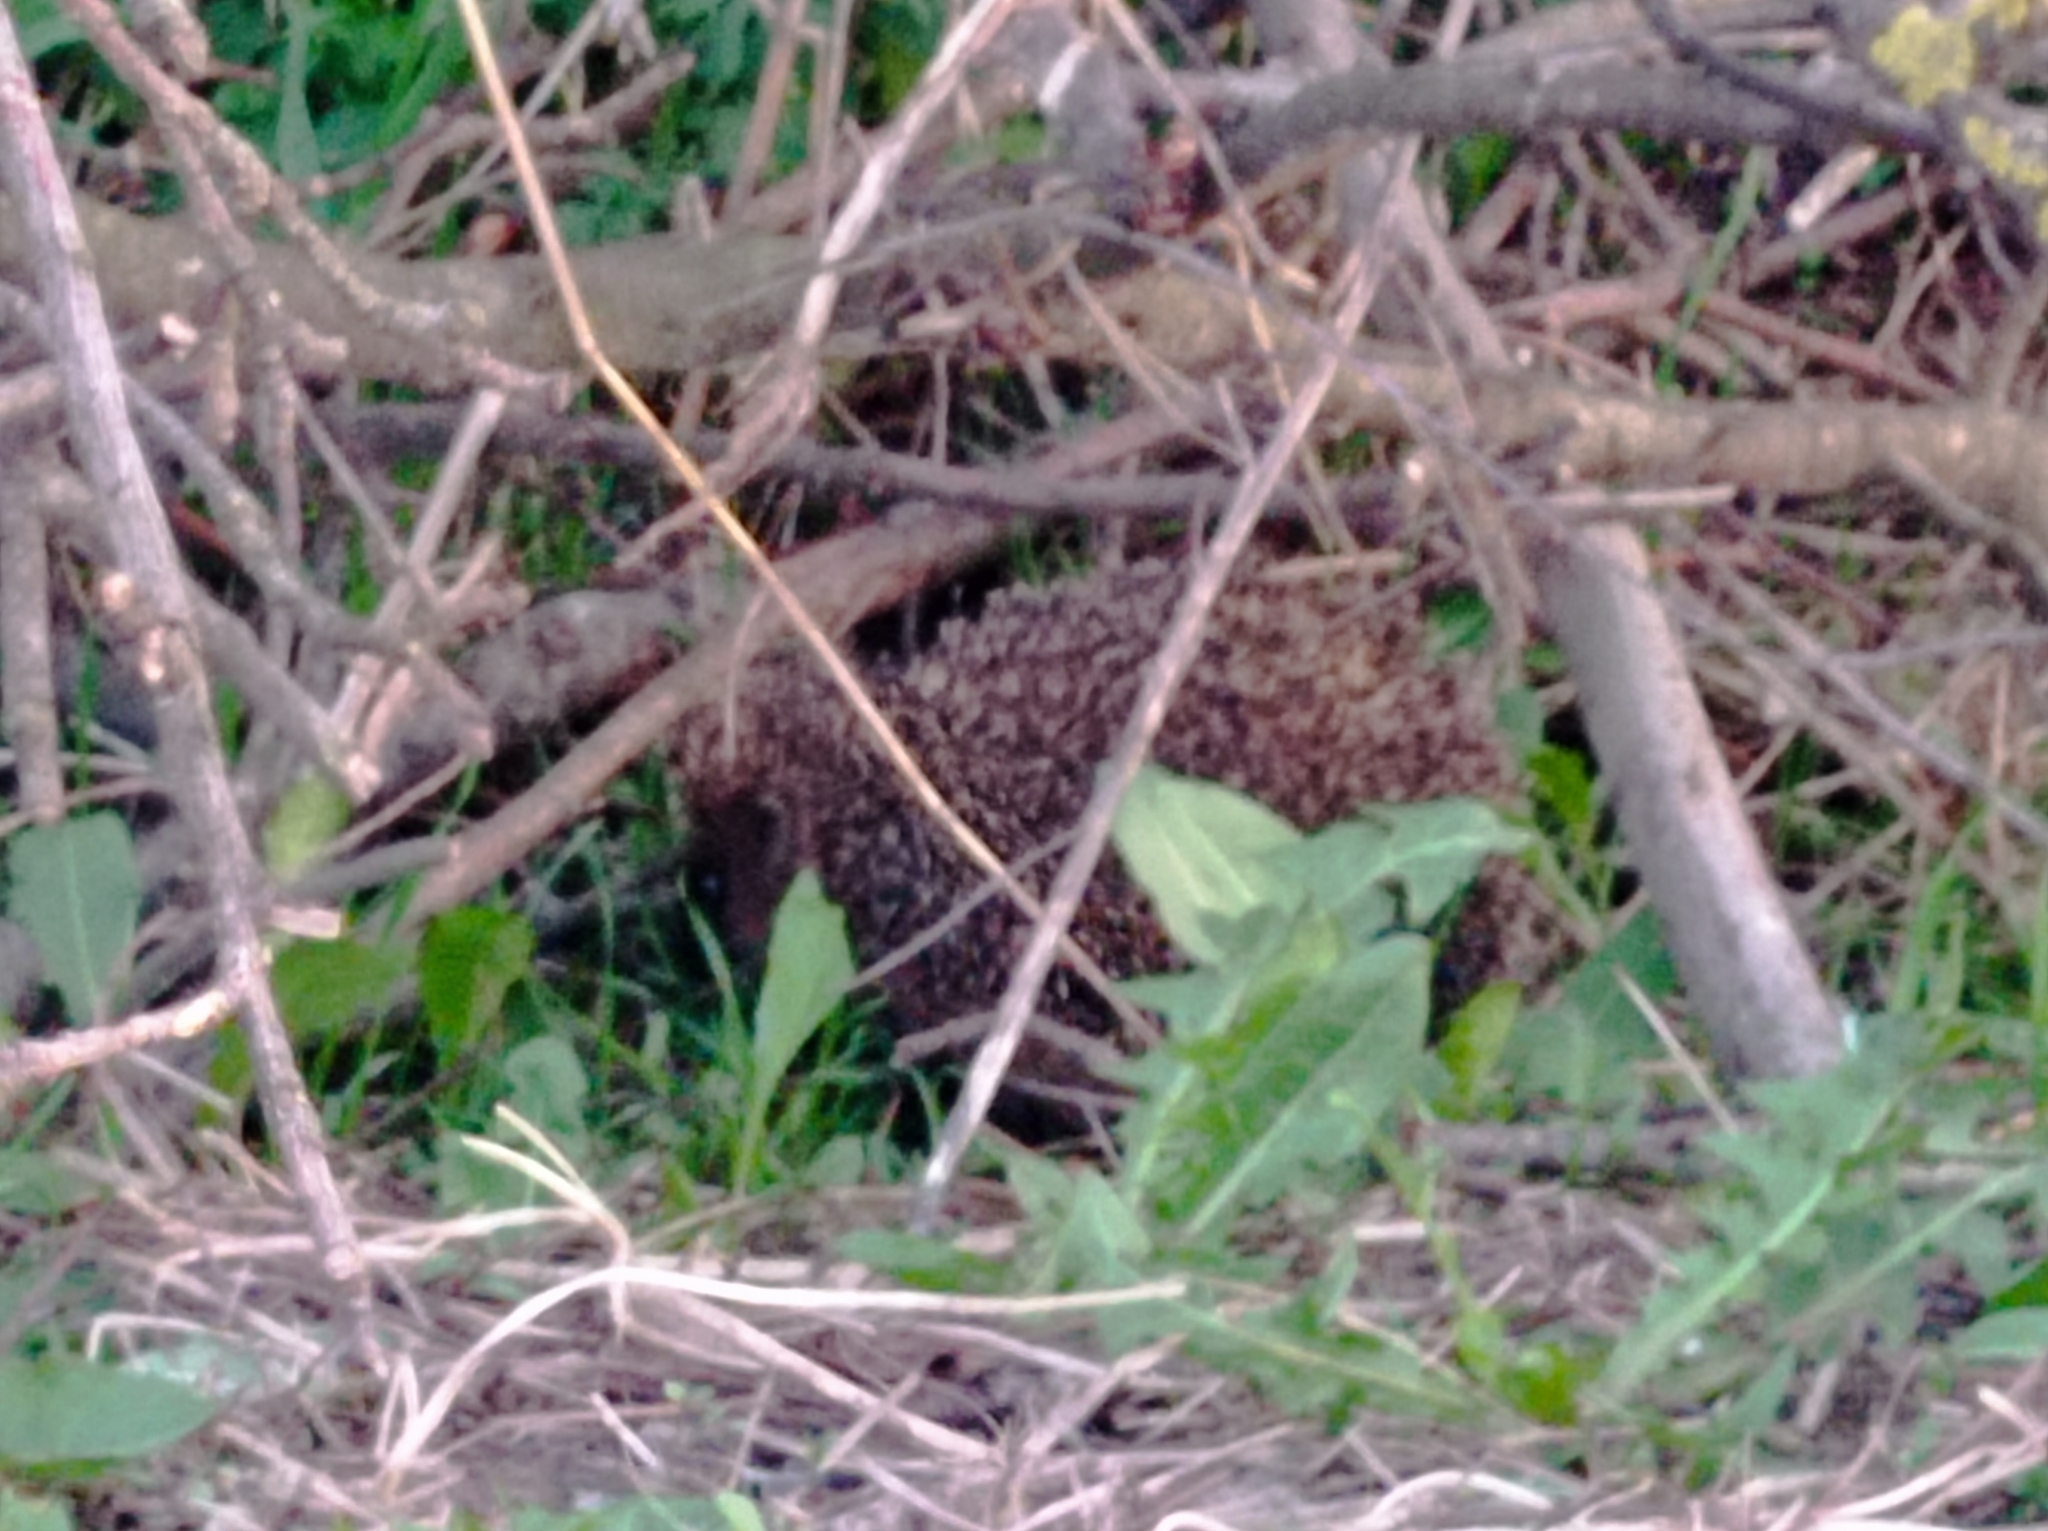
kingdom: Animalia
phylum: Chordata
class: Mammalia
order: Erinaceomorpha
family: Erinaceidae
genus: Erinaceus
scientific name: Erinaceus roumanicus
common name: Northern white-breasted hedgehog
